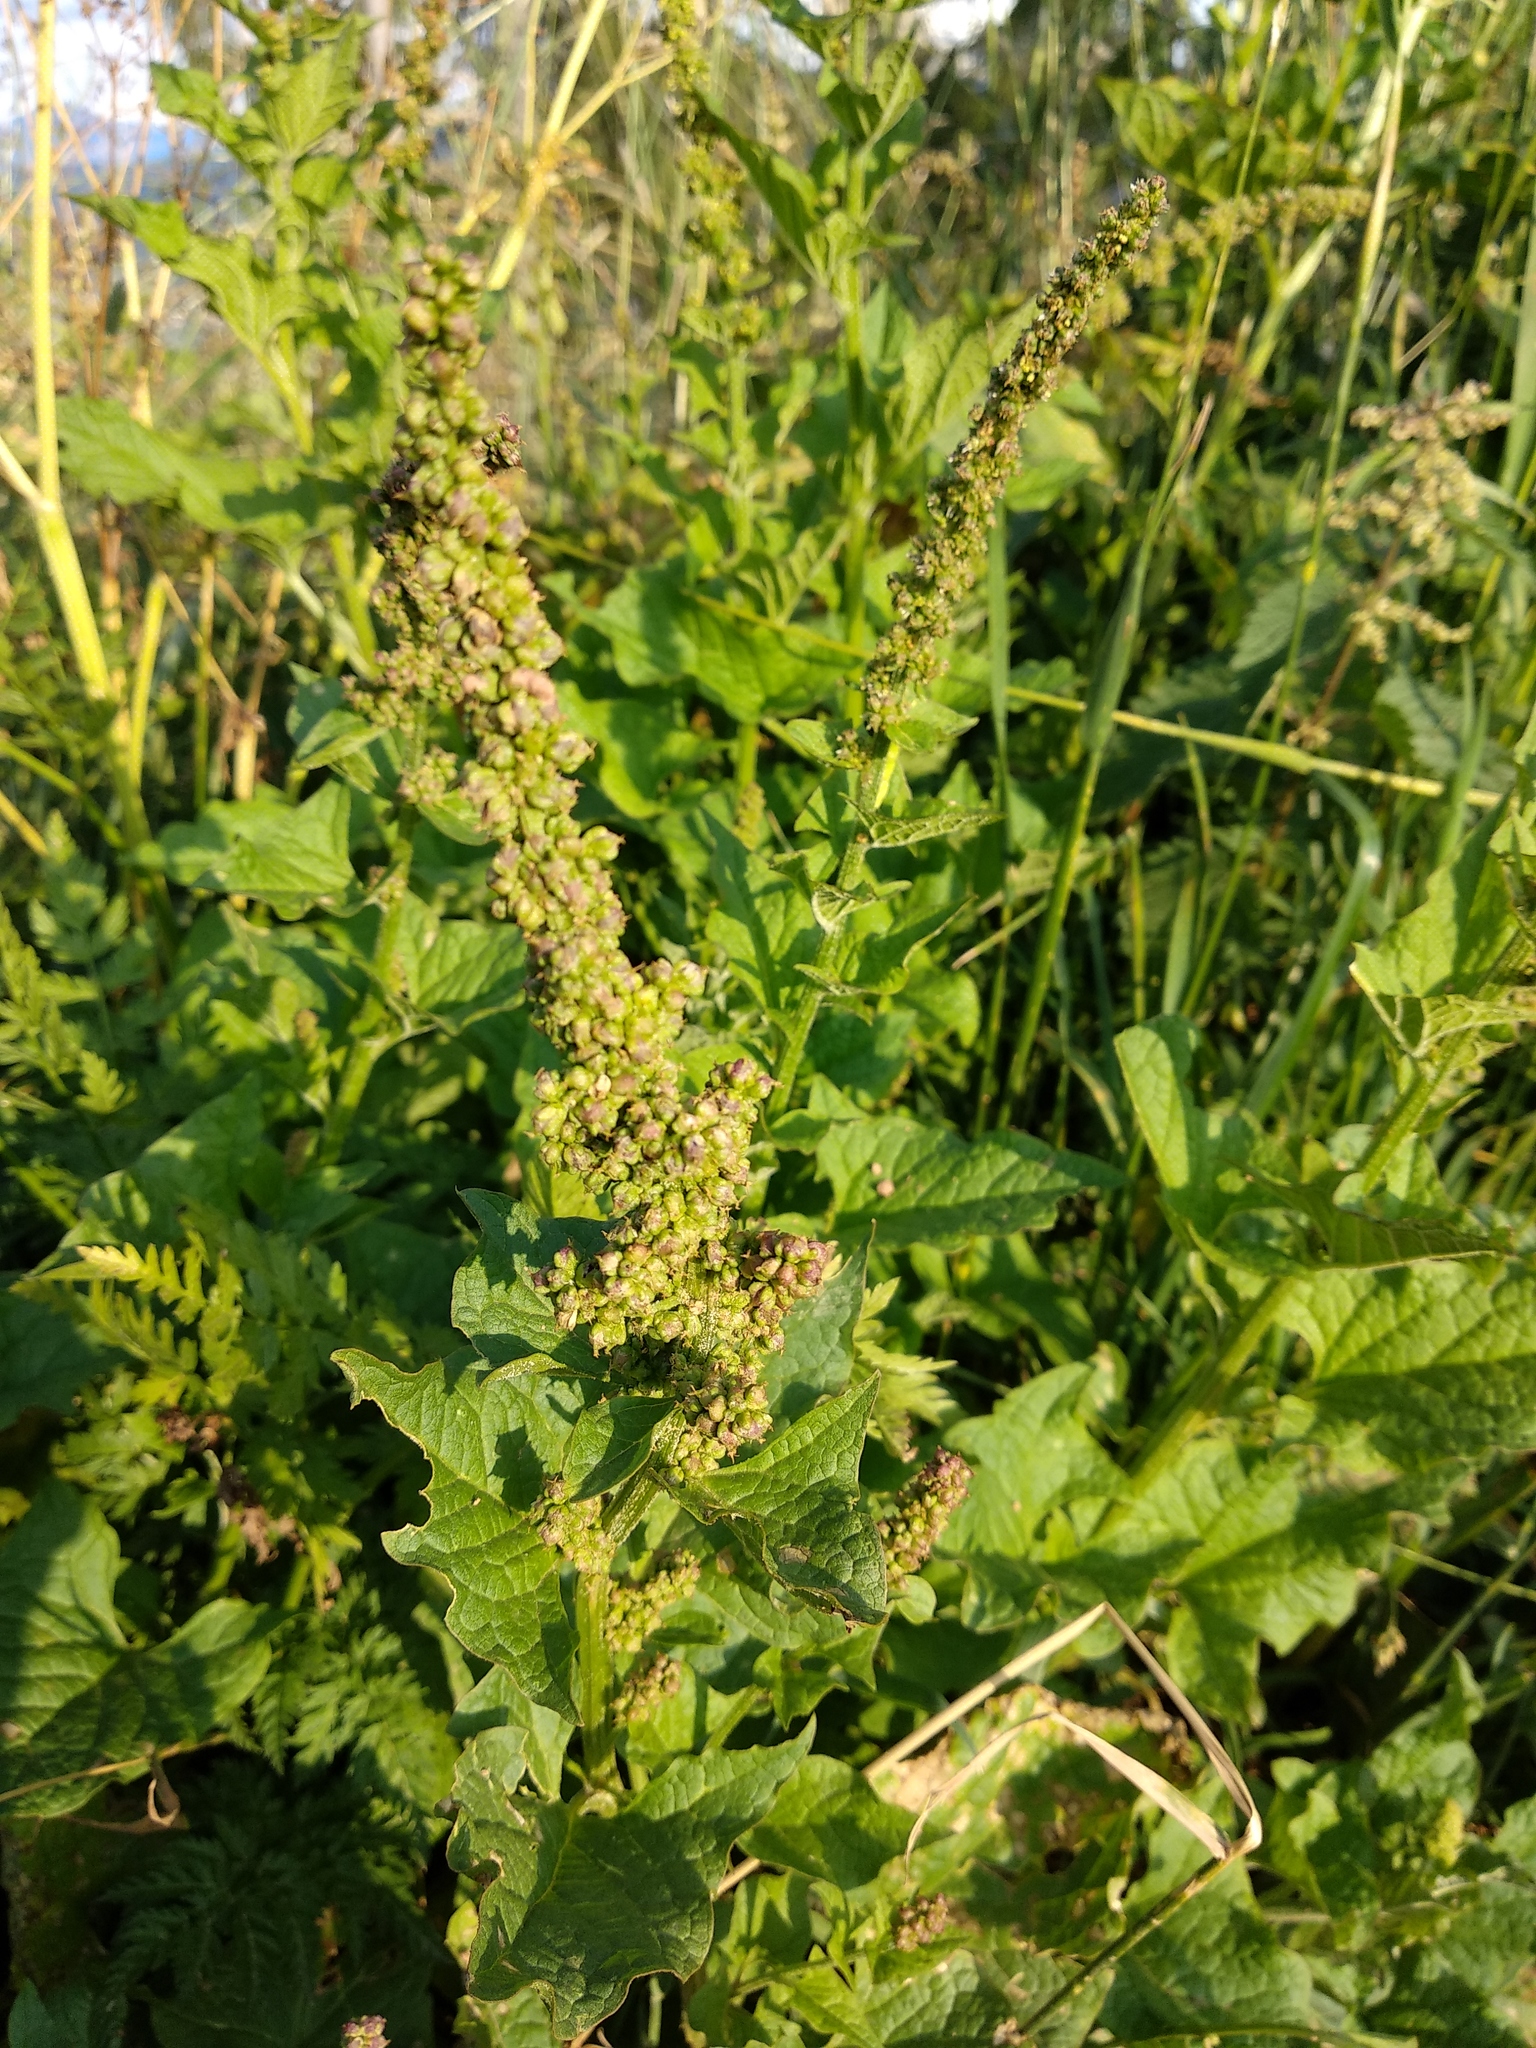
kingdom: Plantae
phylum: Tracheophyta
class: Magnoliopsida
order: Caryophyllales
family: Amaranthaceae
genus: Blitum
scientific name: Blitum bonus-henricus
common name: Good king henry
